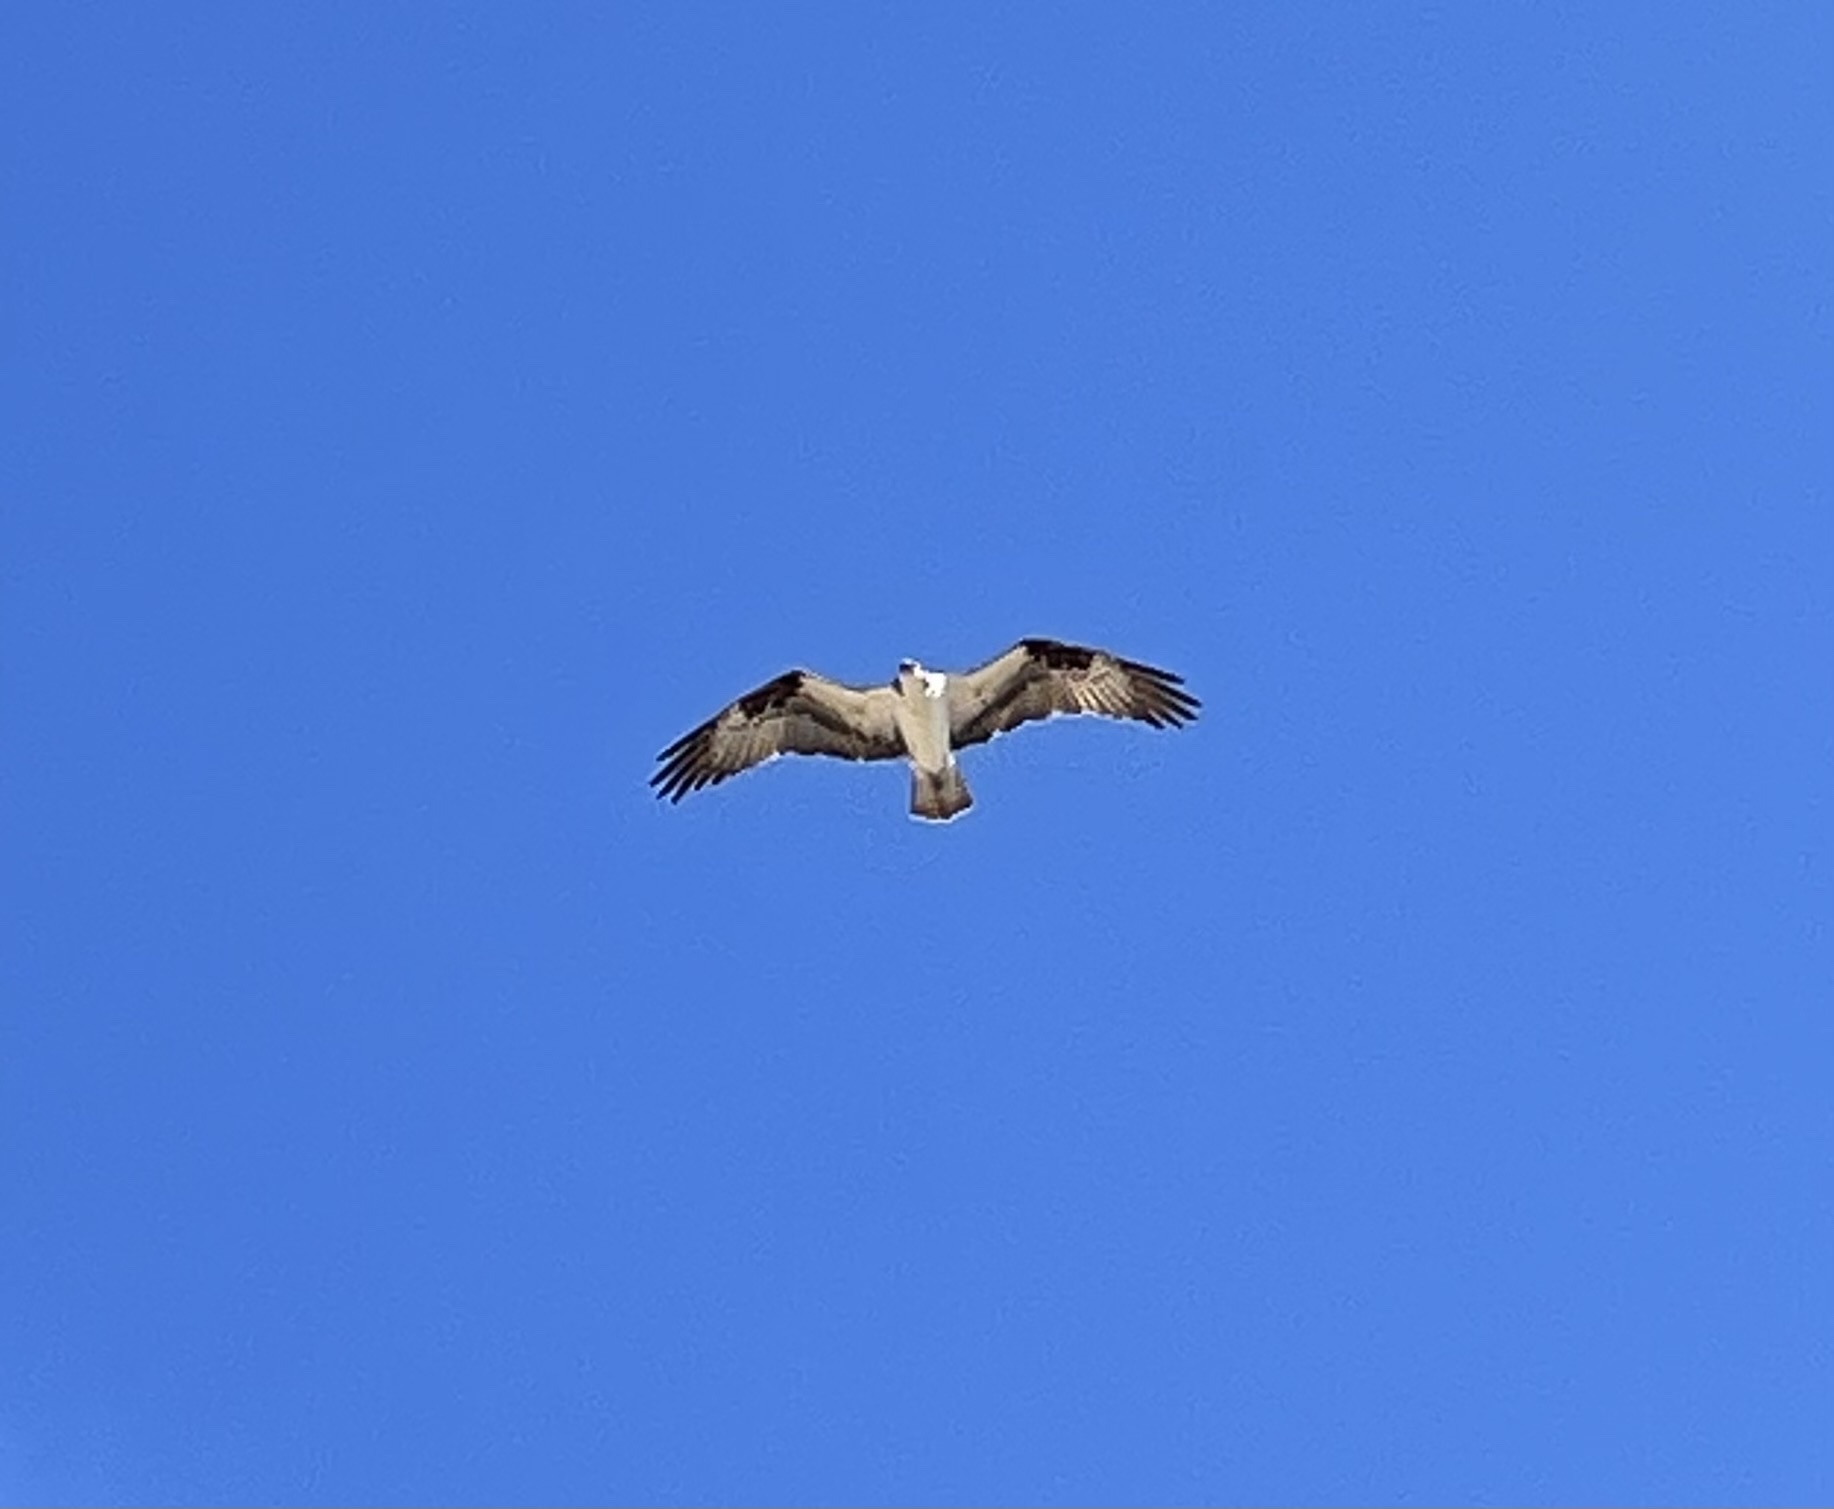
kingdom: Animalia
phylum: Chordata
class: Aves
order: Accipitriformes
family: Pandionidae
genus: Pandion
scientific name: Pandion haliaetus
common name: Osprey
